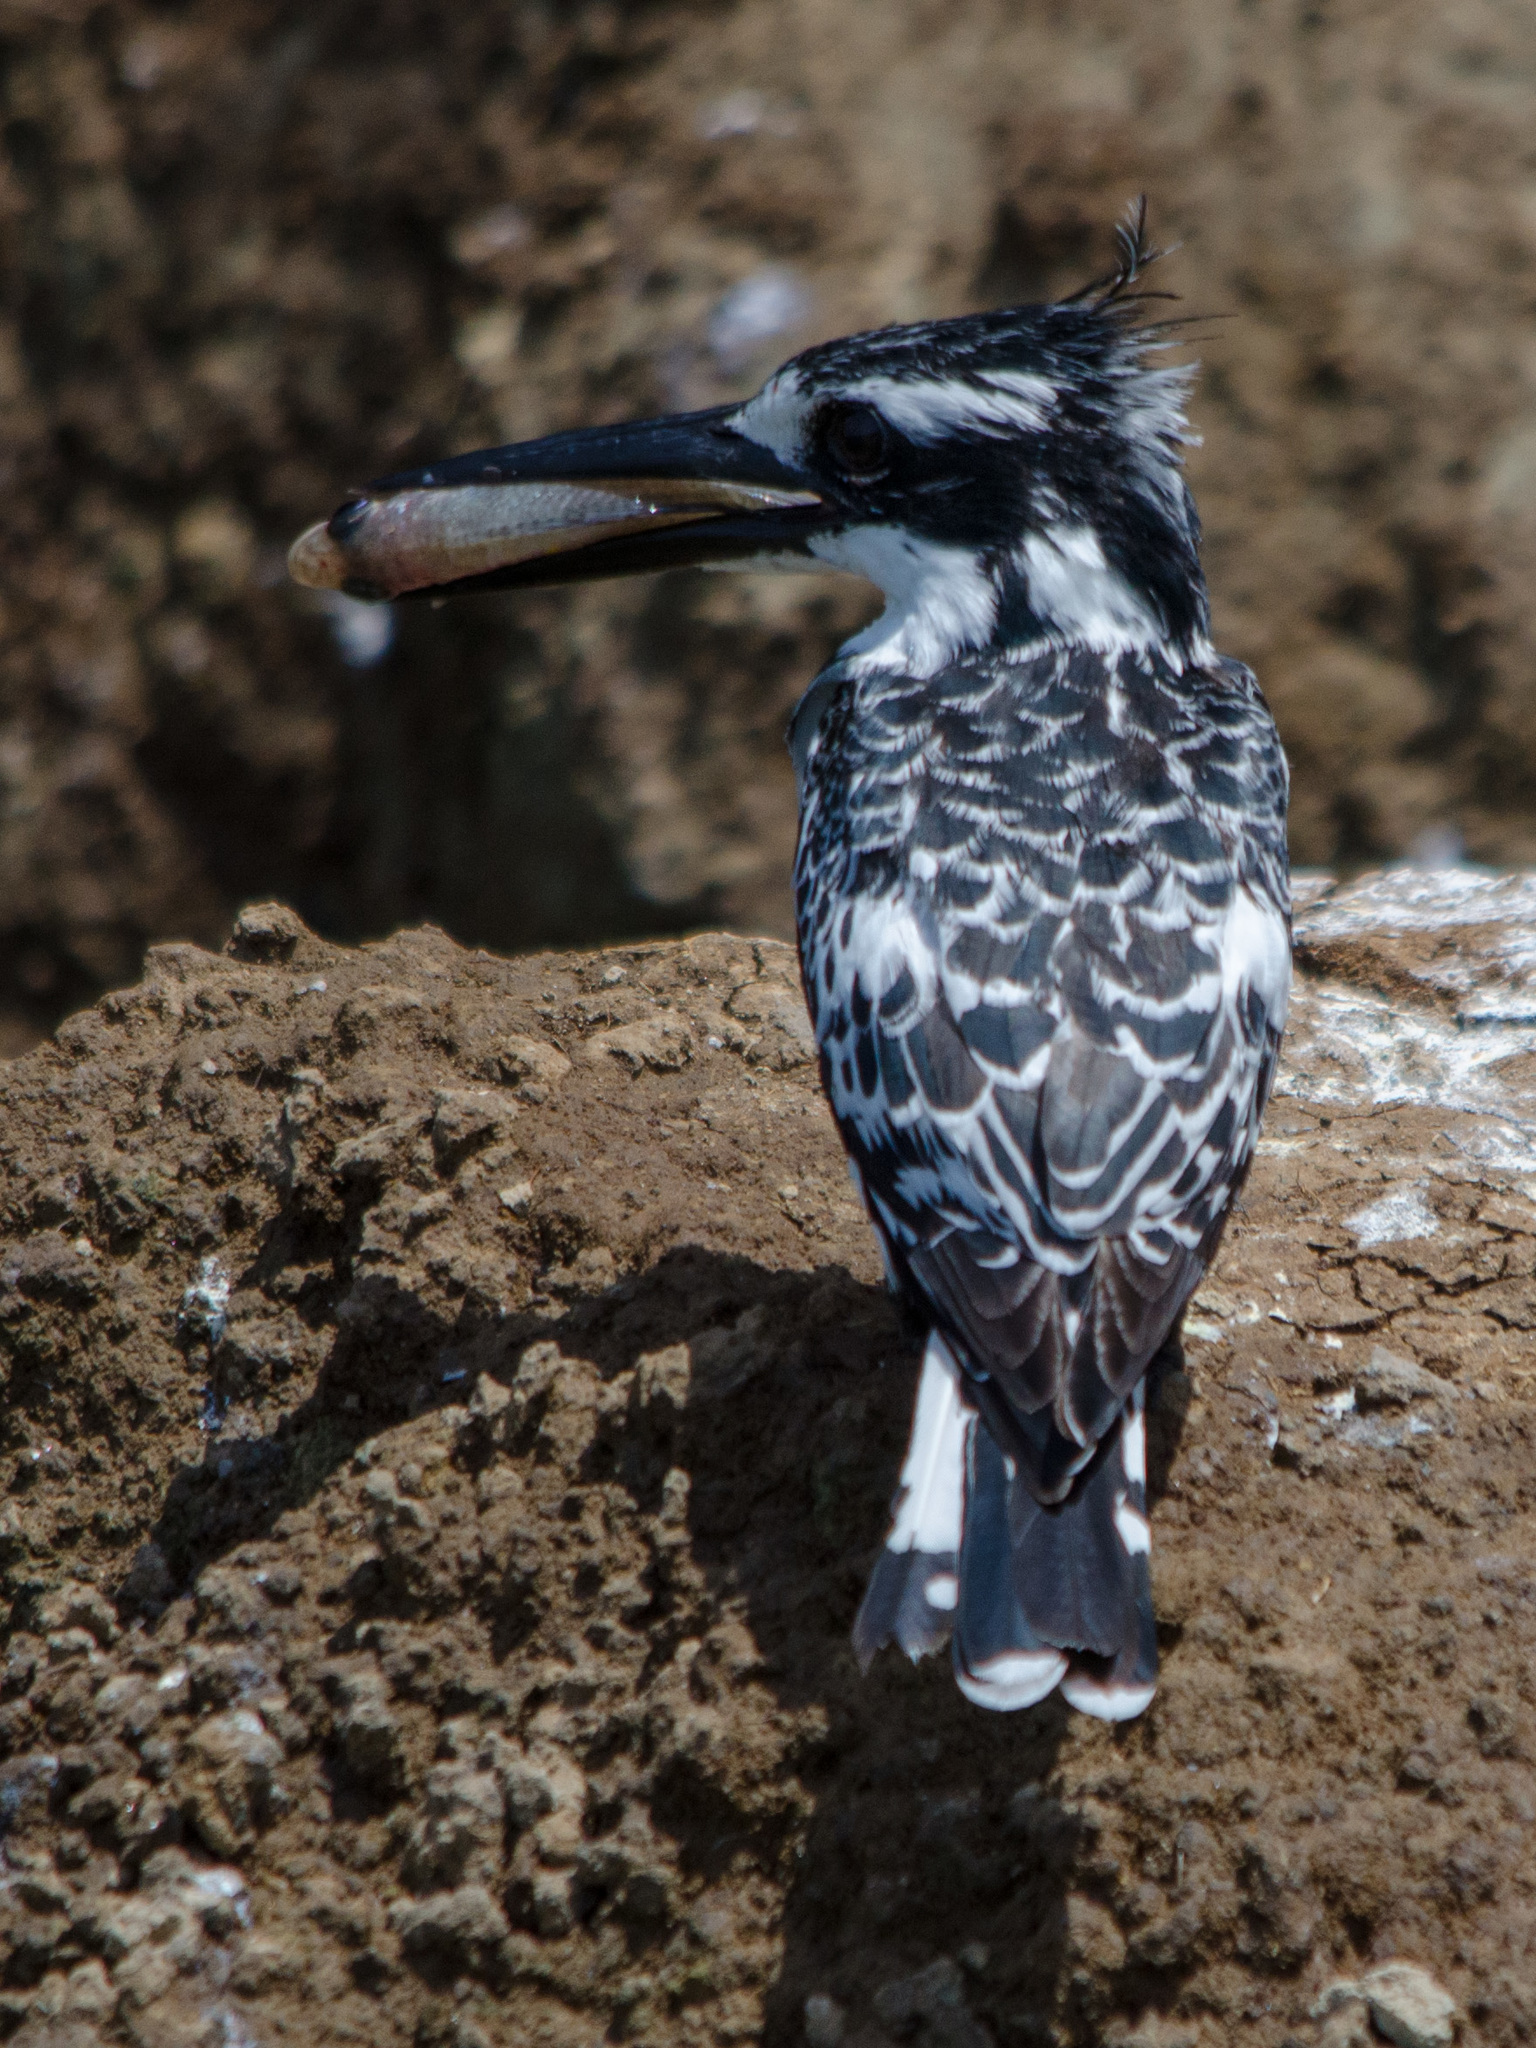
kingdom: Animalia
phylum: Chordata
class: Aves
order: Coraciiformes
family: Alcedinidae
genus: Ceryle
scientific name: Ceryle rudis
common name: Pied kingfisher
